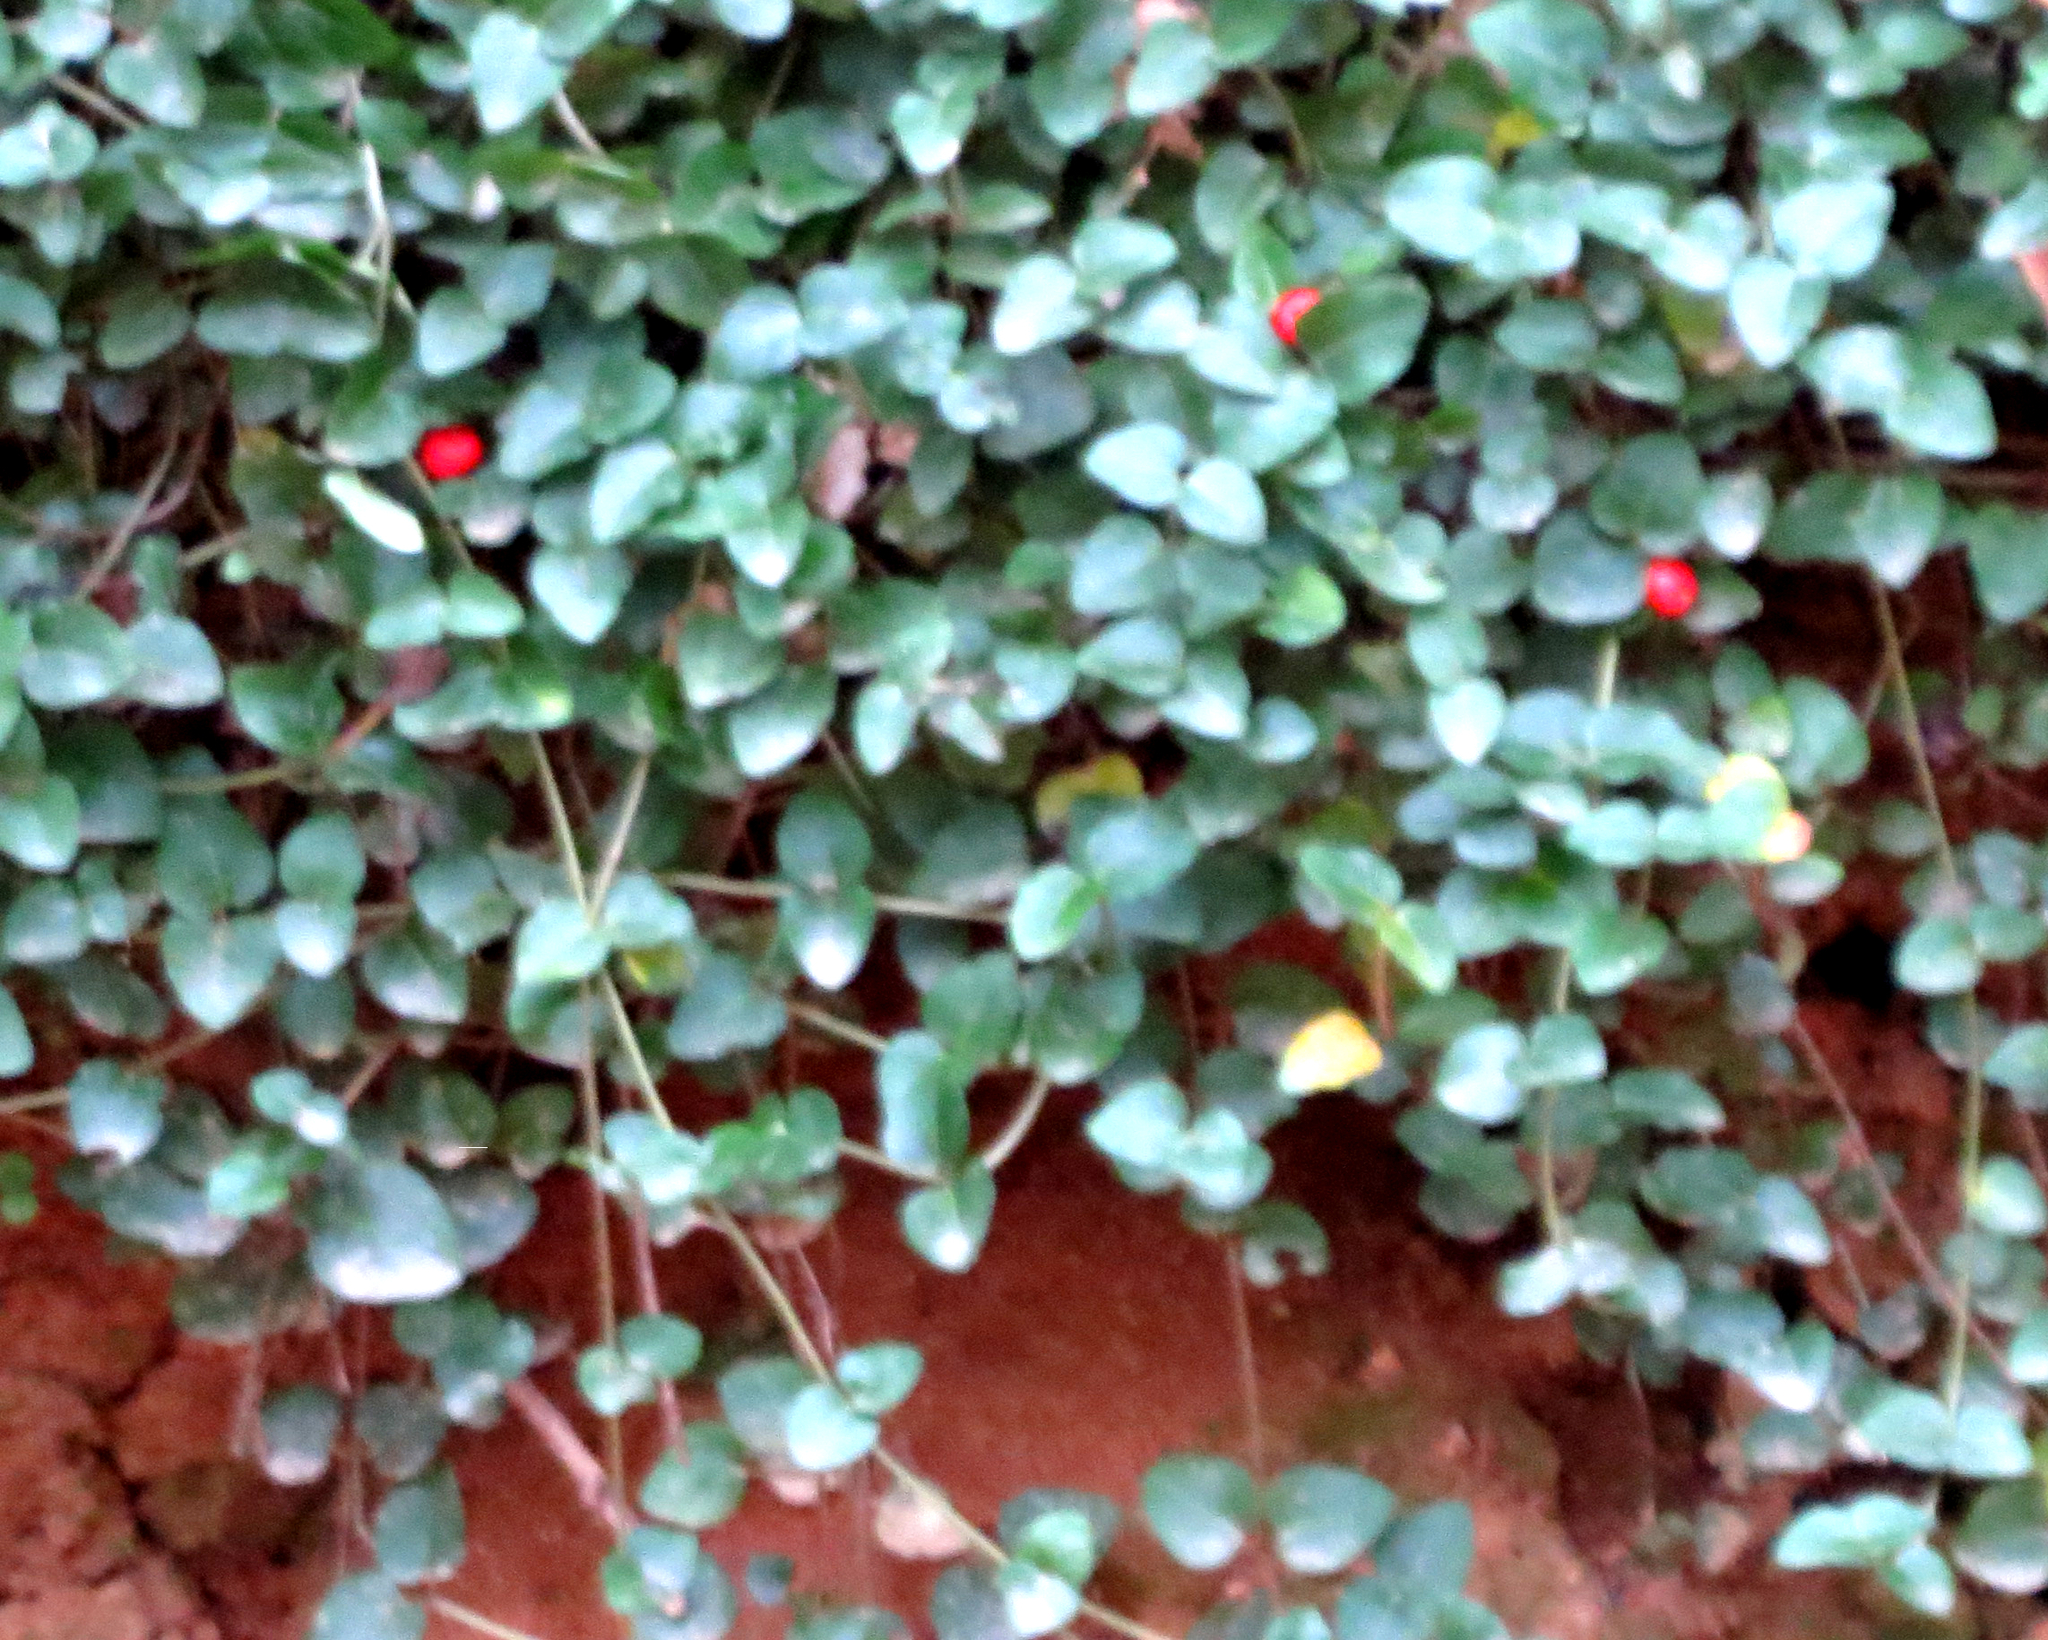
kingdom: Plantae
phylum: Tracheophyta
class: Magnoliopsida
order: Gentianales
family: Rubiaceae
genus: Mitchella
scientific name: Mitchella repens
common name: Partridge-berry
